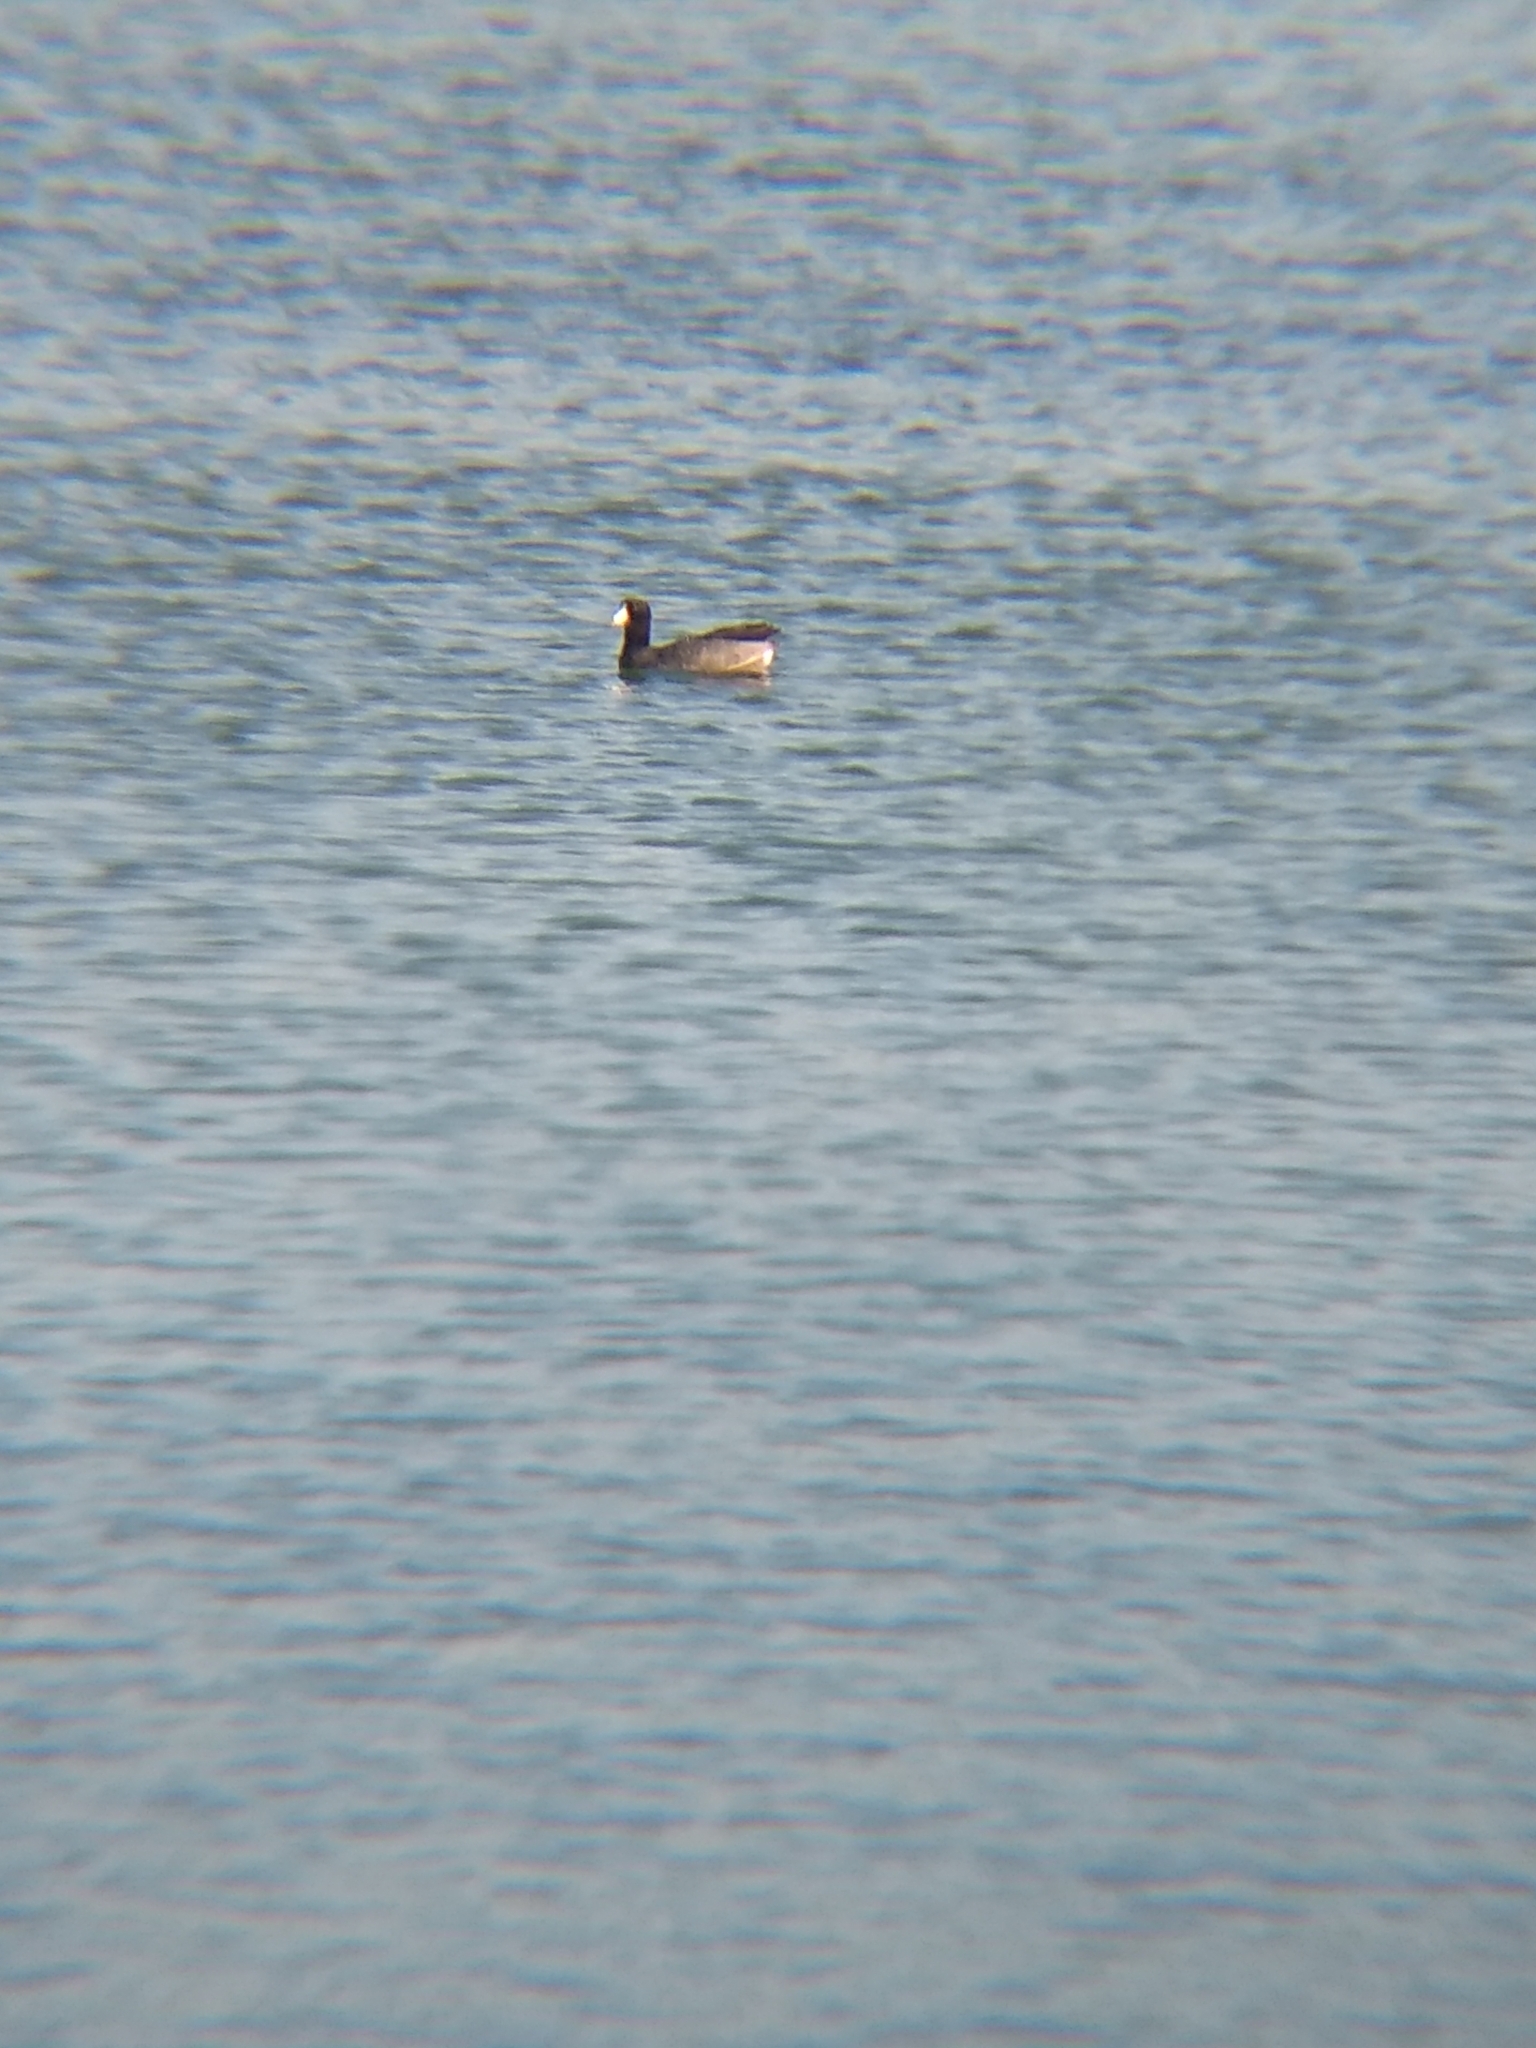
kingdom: Animalia
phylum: Chordata
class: Aves
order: Gruiformes
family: Rallidae
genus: Fulica
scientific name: Fulica americana
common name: American coot
